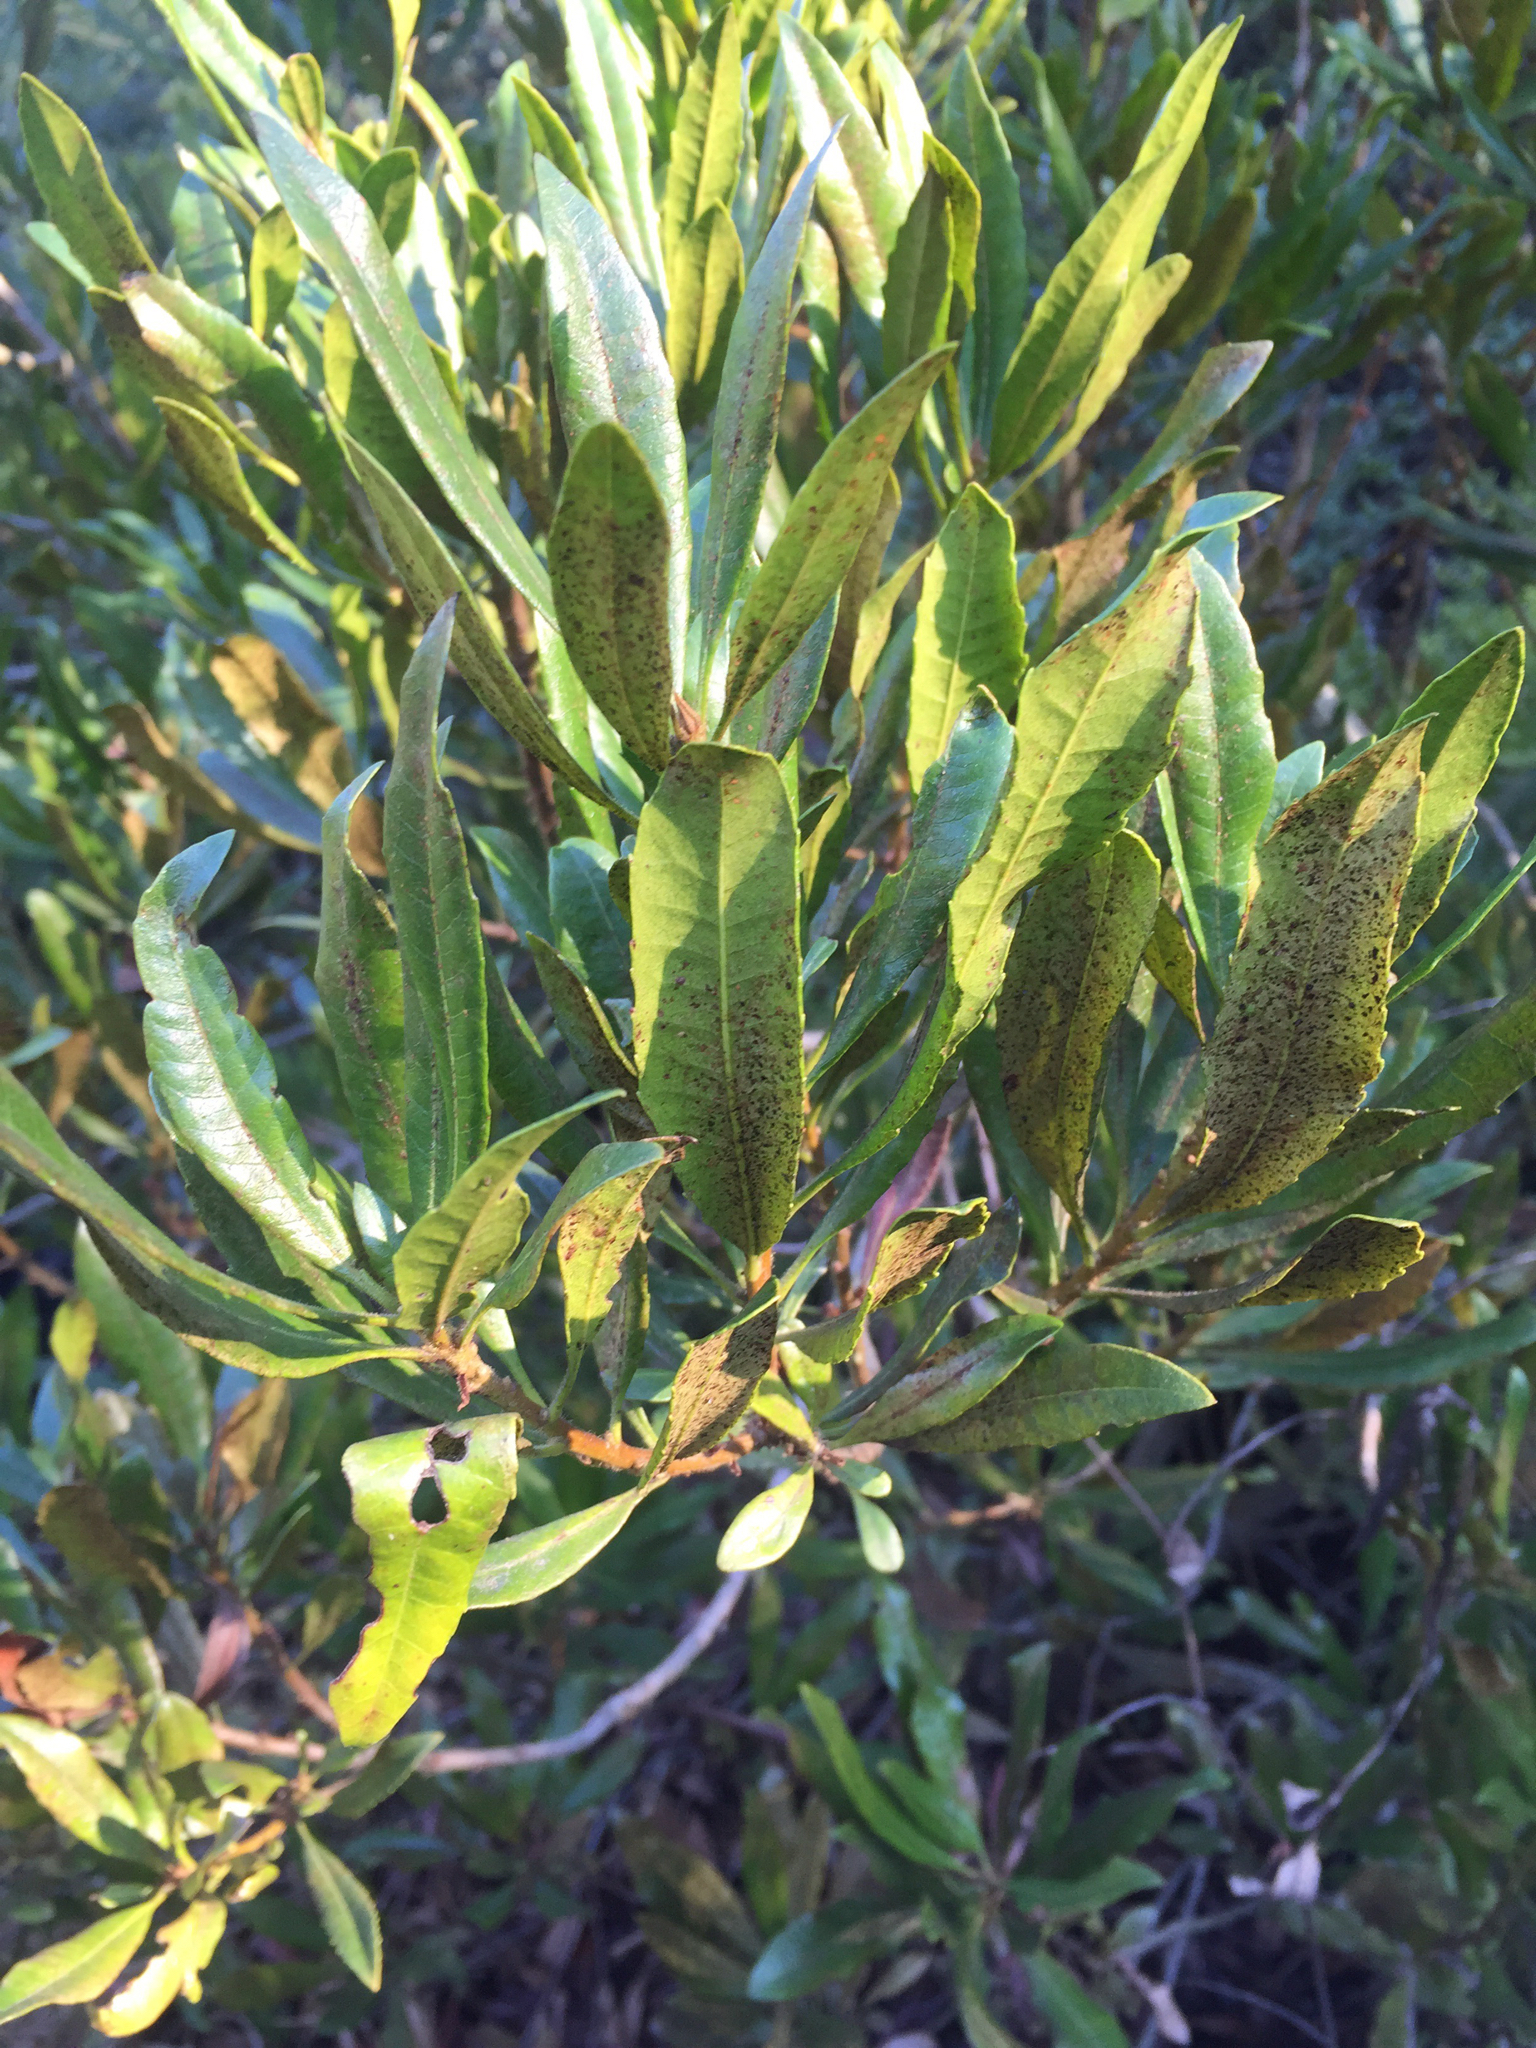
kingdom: Plantae
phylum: Tracheophyta
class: Magnoliopsida
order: Fagales
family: Myricaceae
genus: Morella
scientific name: Morella californica
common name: California wax-myrtle
